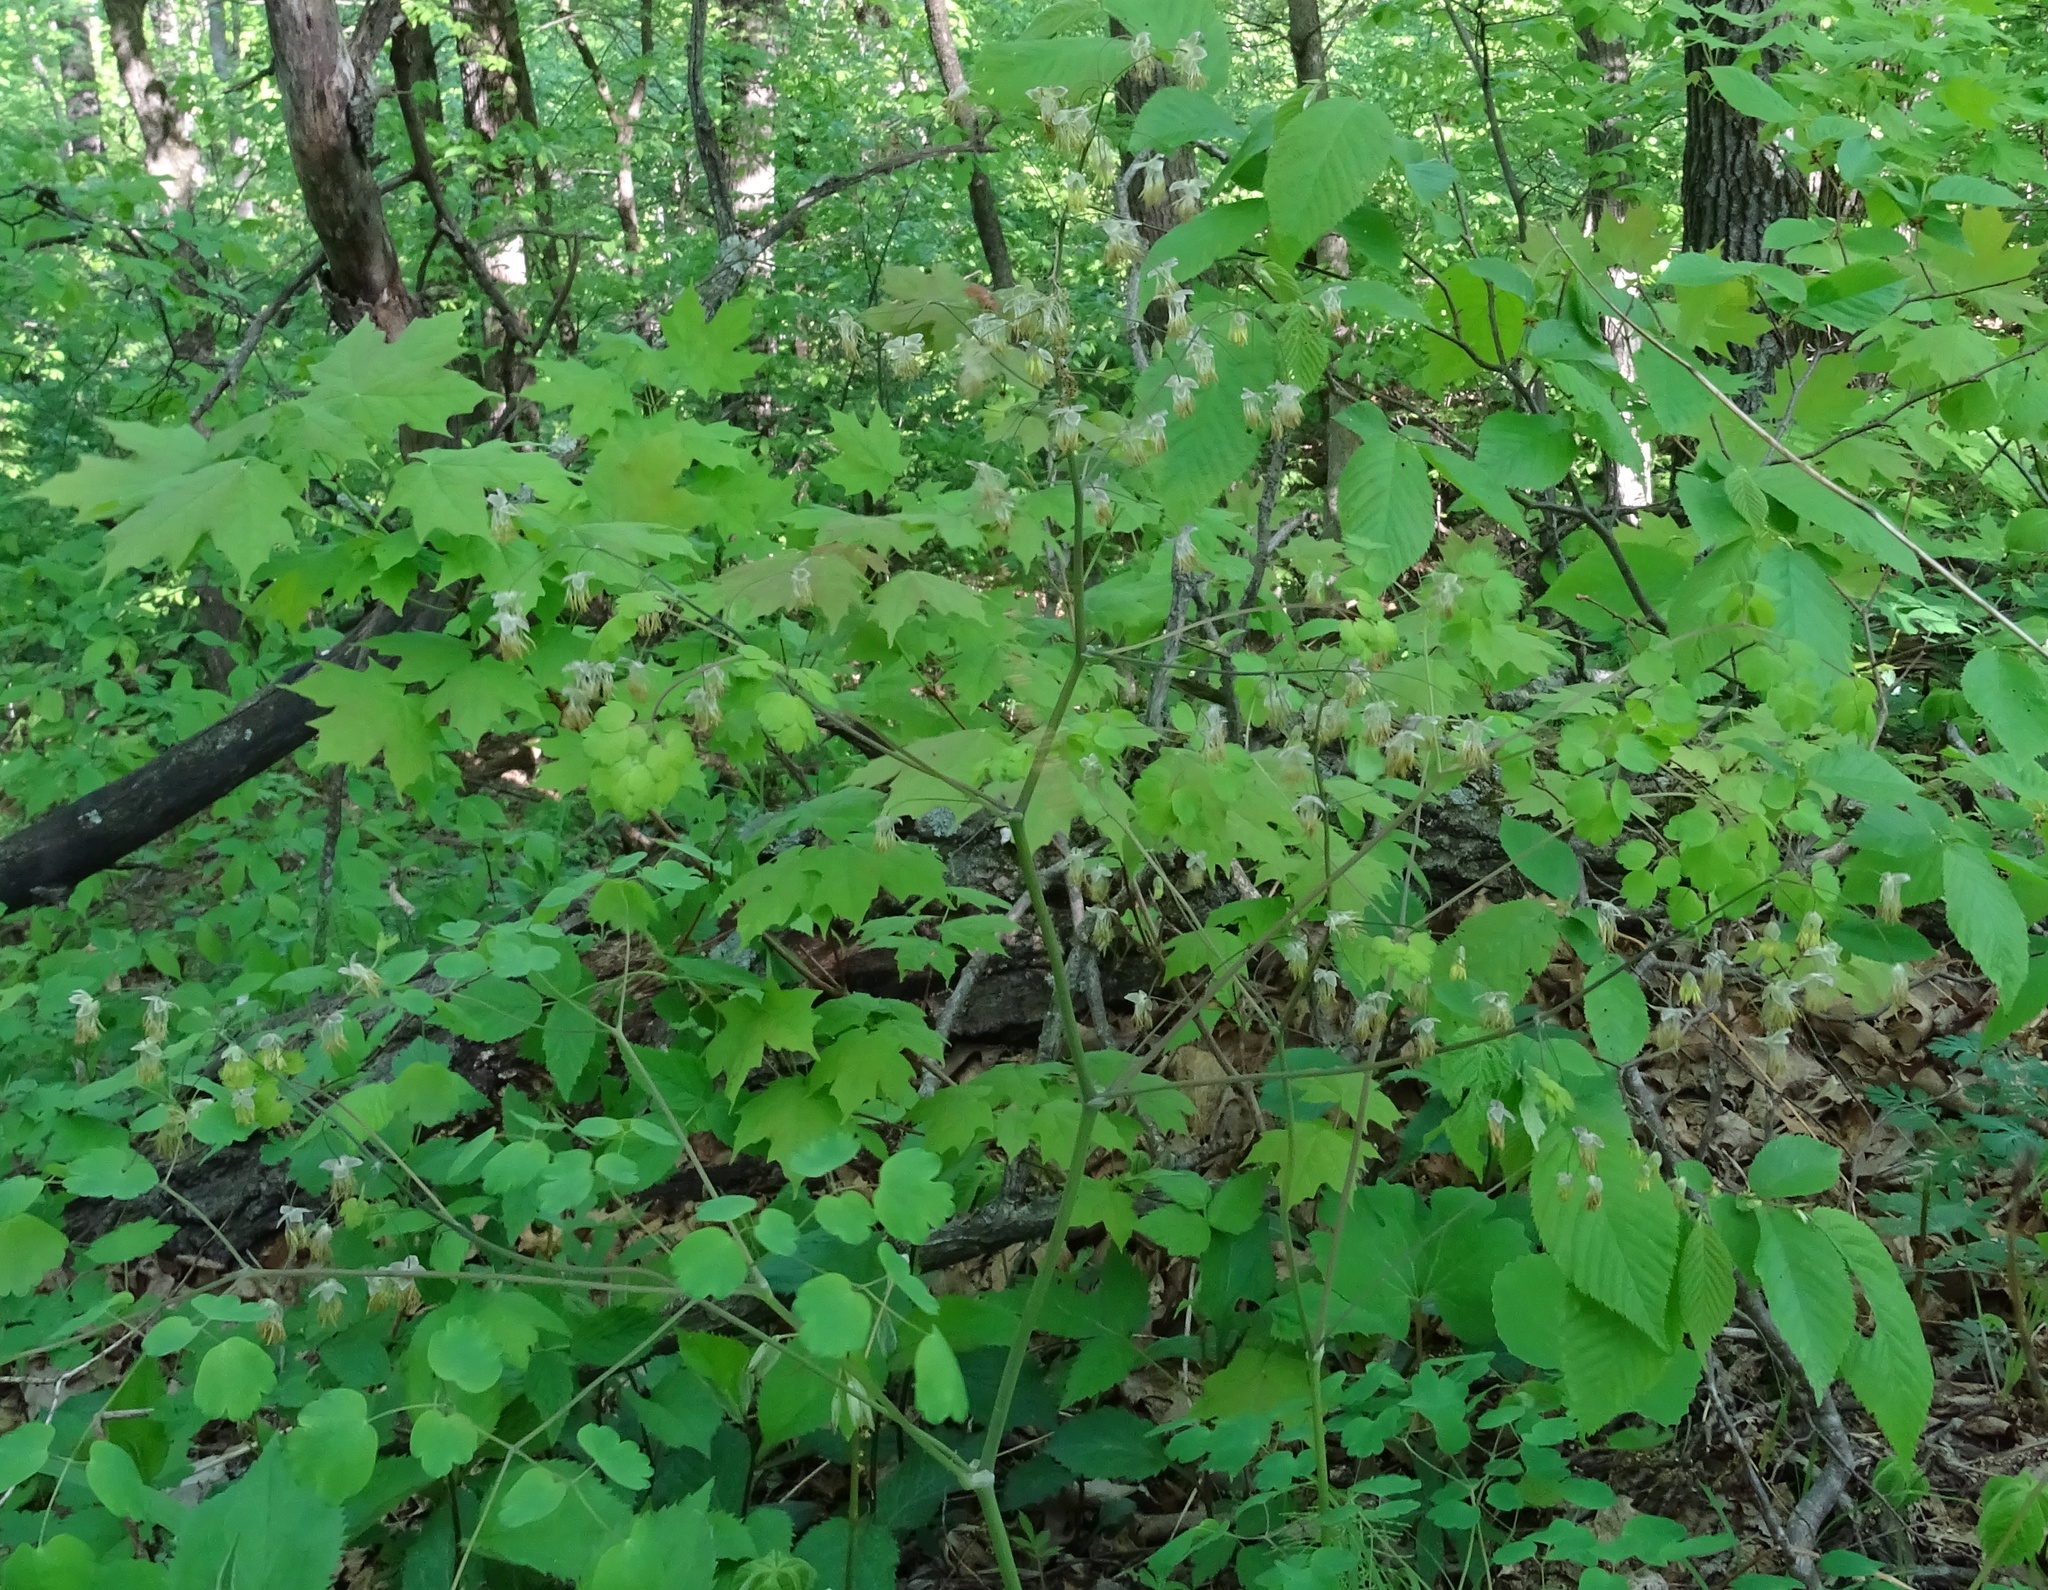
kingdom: Plantae
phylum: Tracheophyta
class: Magnoliopsida
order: Ranunculales
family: Ranunculaceae
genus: Thalictrum
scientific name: Thalictrum dioicum
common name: Early meadow-rue
